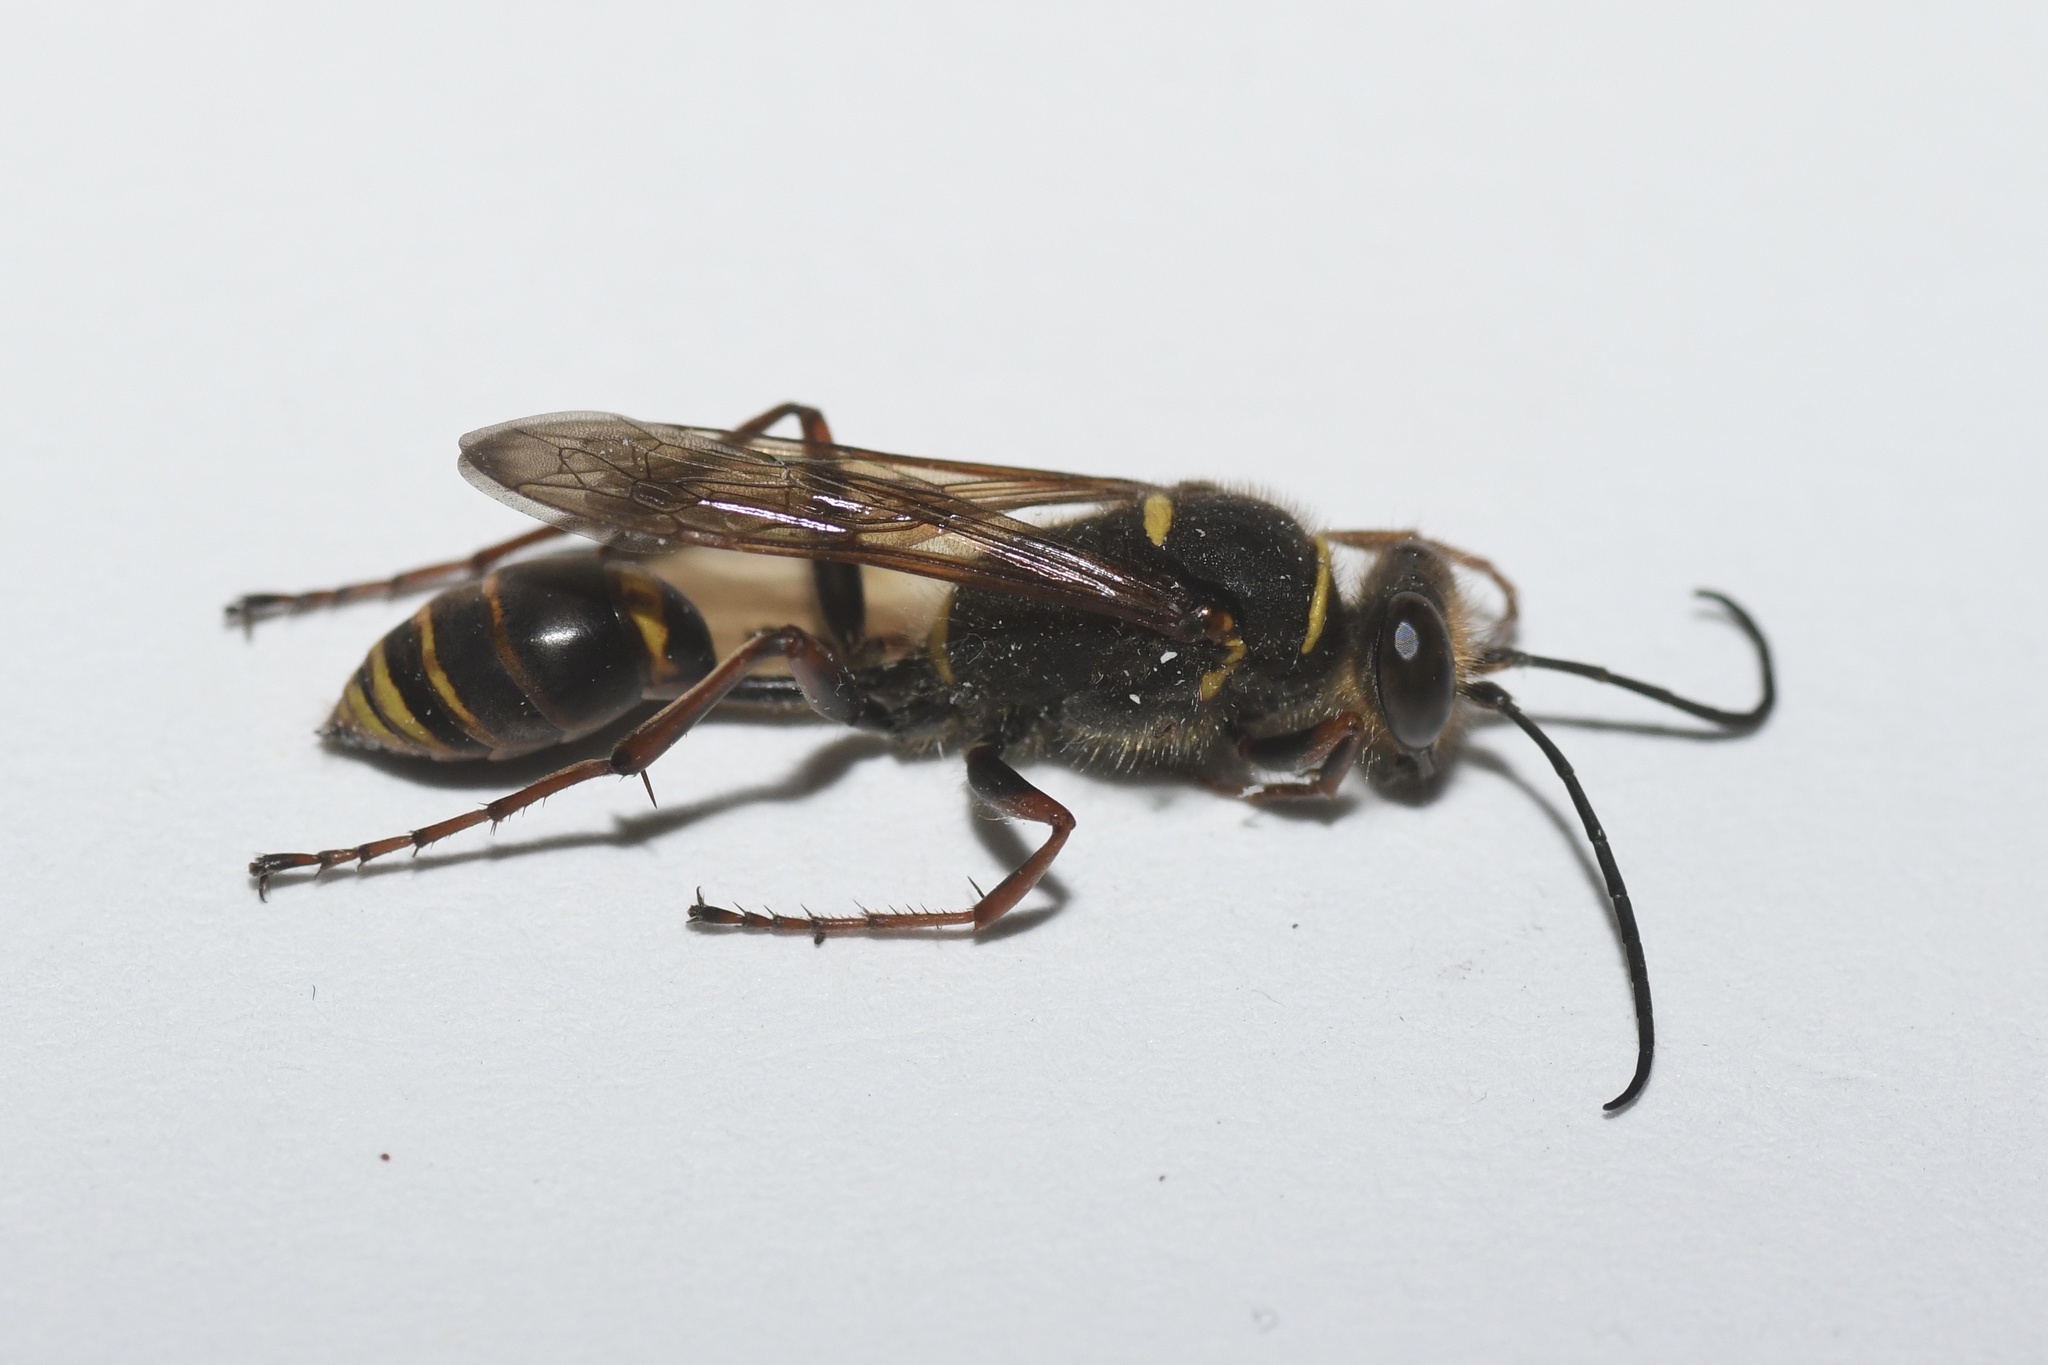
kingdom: Animalia
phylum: Arthropoda
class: Insecta
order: Hymenoptera
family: Sphecidae
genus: Sceliphron
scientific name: Sceliphron curvatum
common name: Pèlopèe
